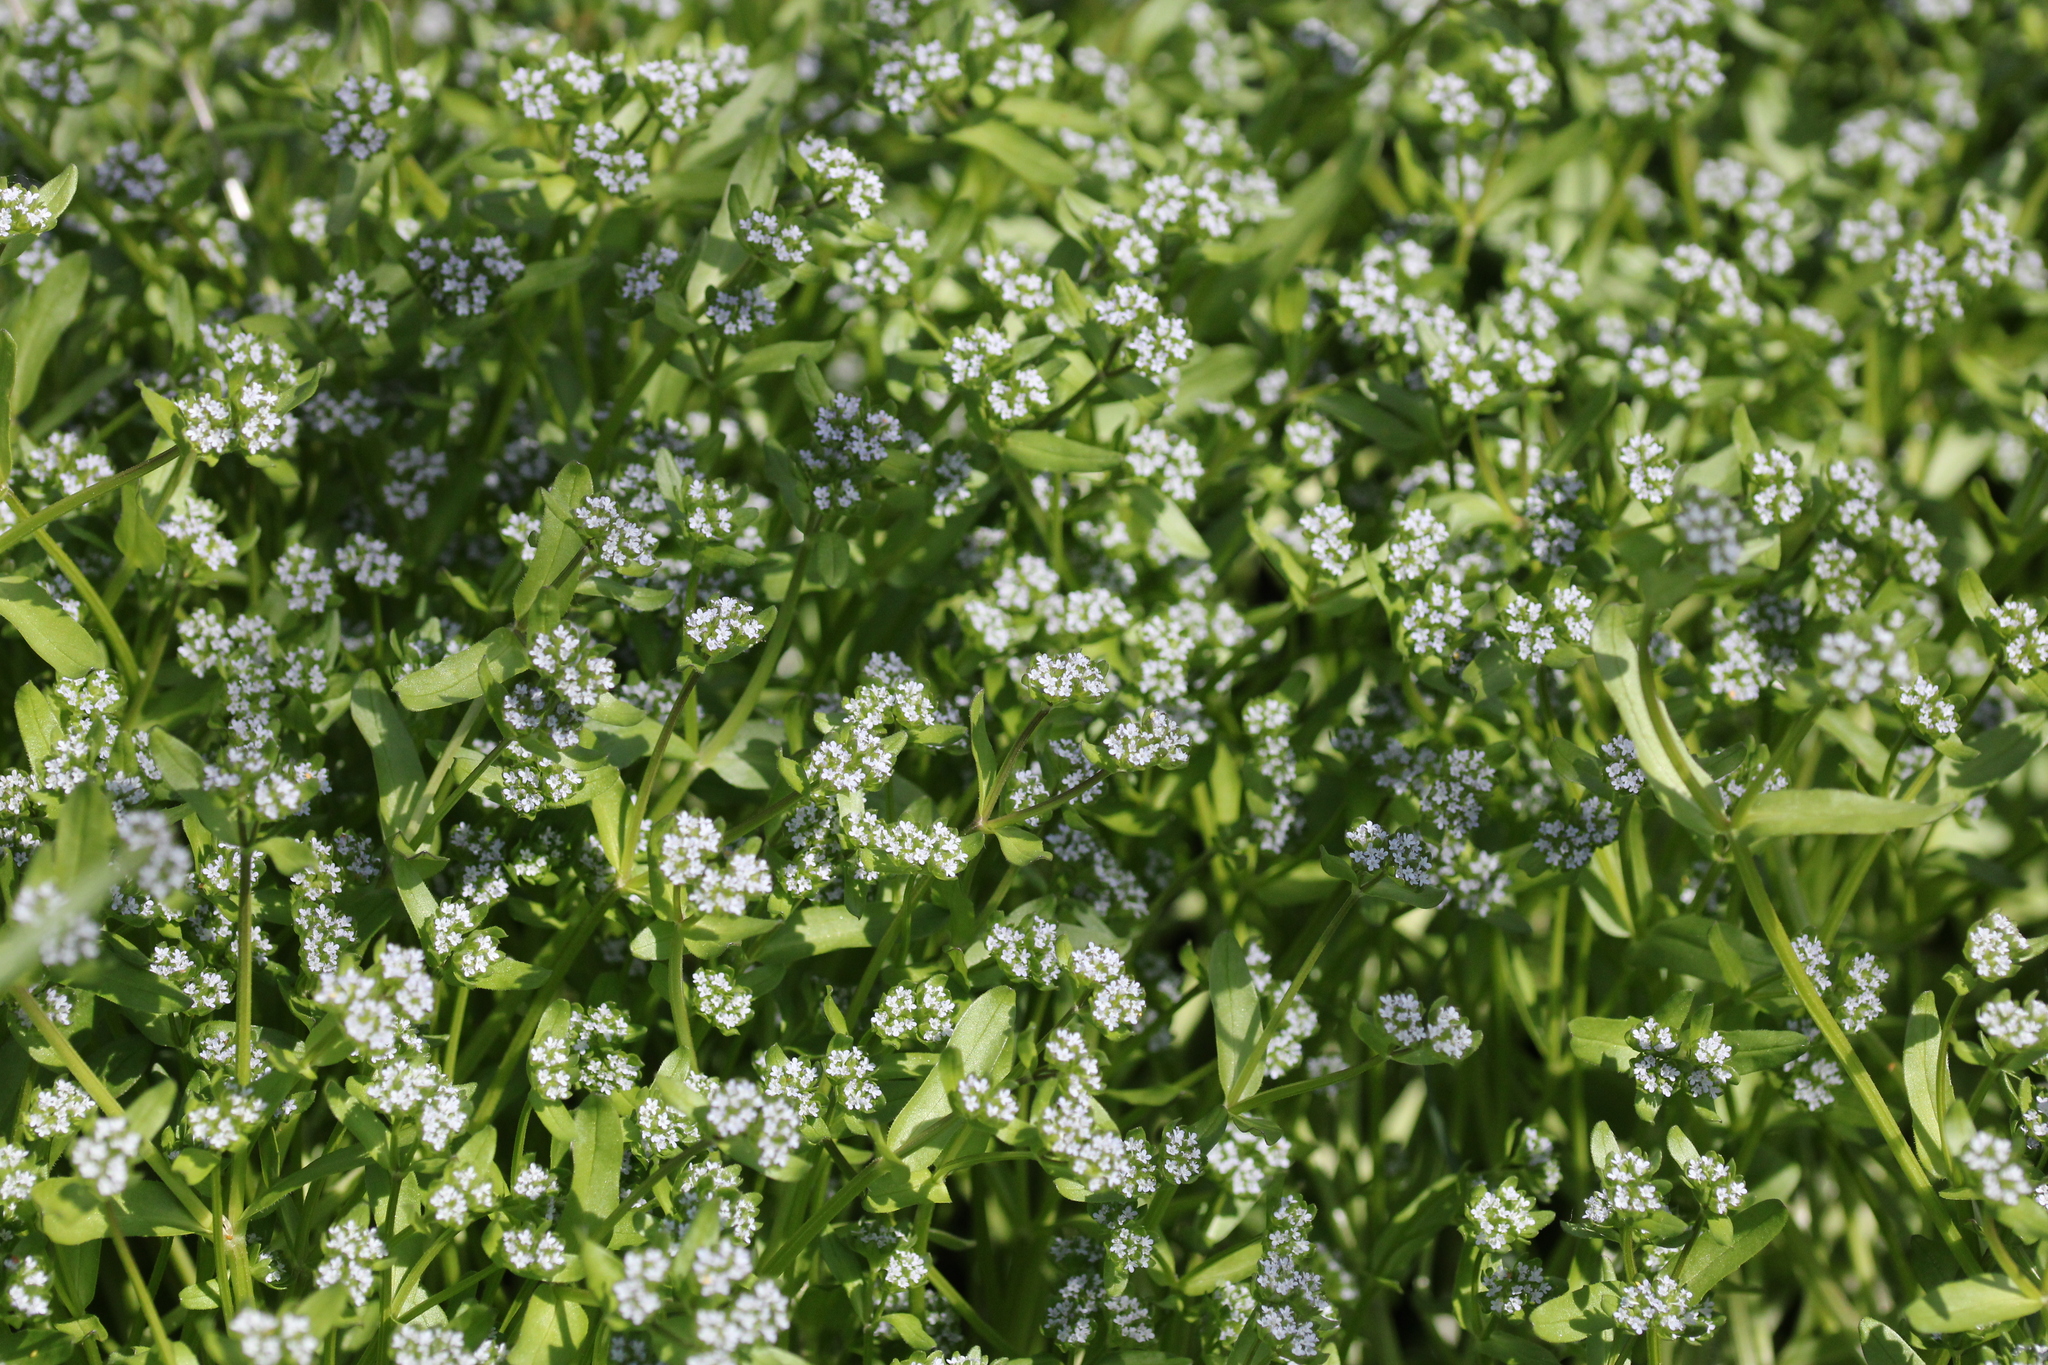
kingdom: Plantae
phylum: Tracheophyta
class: Magnoliopsida
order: Dipsacales
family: Caprifoliaceae
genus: Valerianella
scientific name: Valerianella locusta
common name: Common cornsalad
